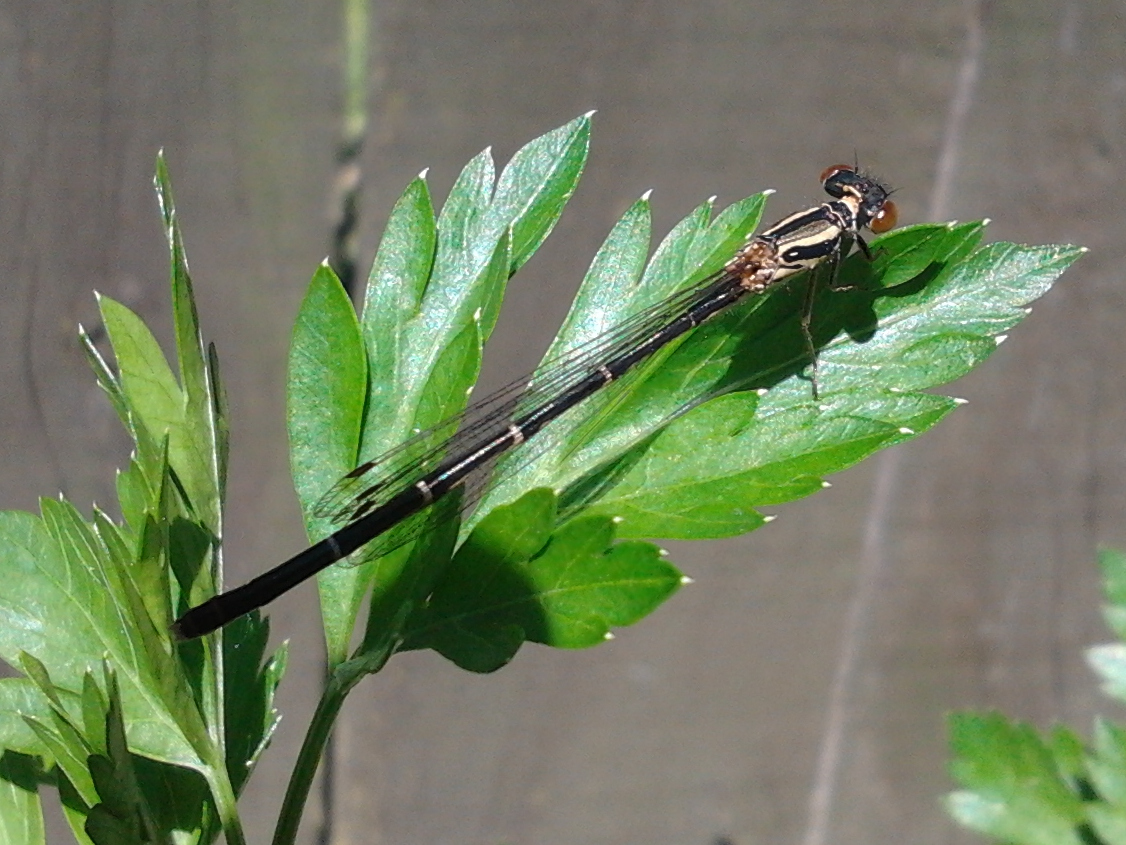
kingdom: Animalia
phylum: Arthropoda
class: Insecta
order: Odonata
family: Coenagrionidae
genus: Xanthocnemis
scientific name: Xanthocnemis zealandica
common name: Common redcoat damselfly
